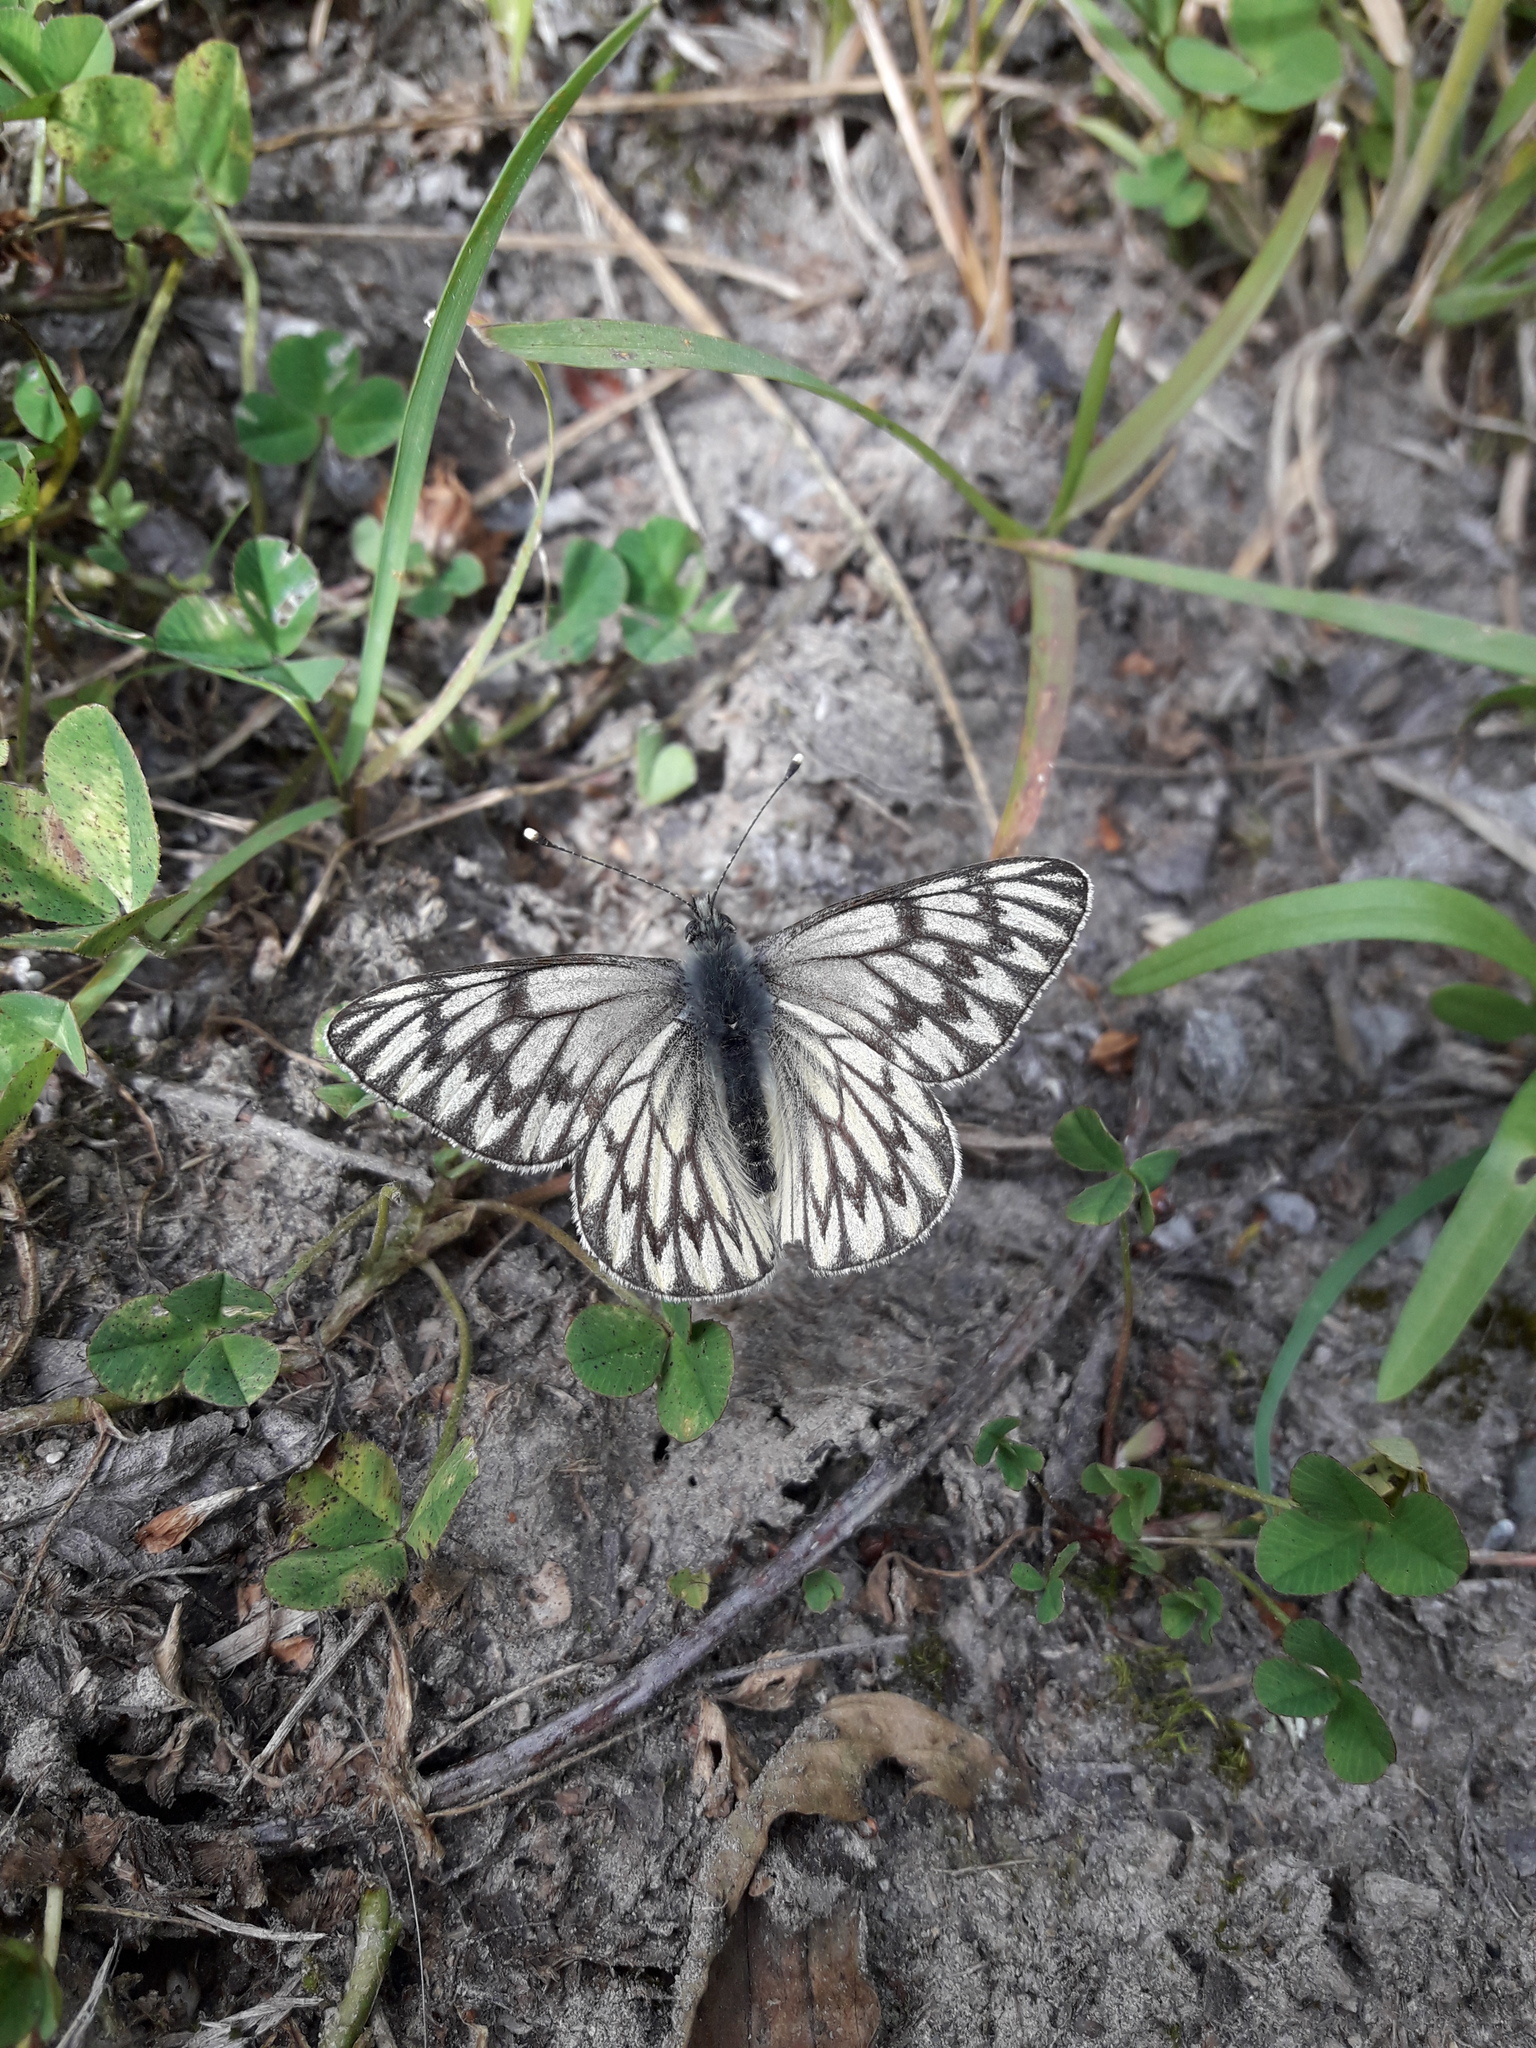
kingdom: Animalia
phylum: Arthropoda
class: Insecta
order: Lepidoptera
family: Pieridae
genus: Tatochila
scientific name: Tatochila theodice
